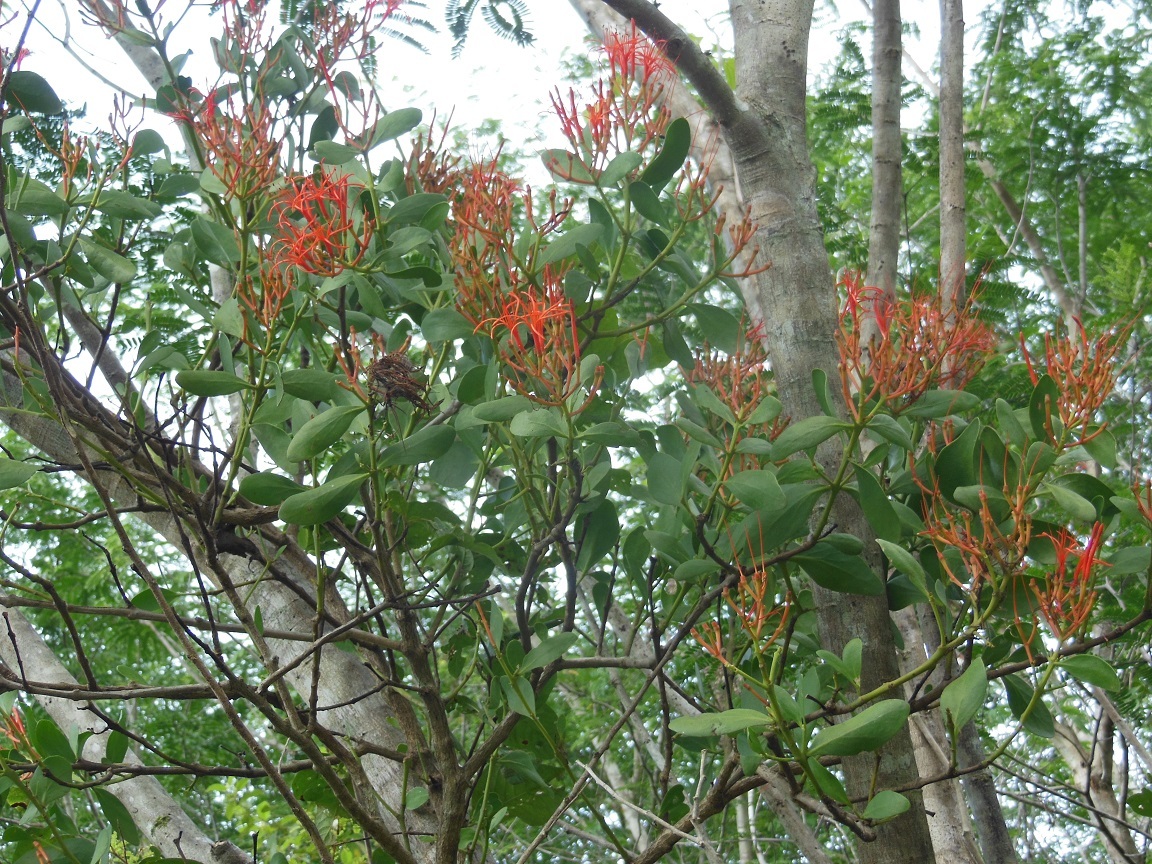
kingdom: Plantae
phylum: Tracheophyta
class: Magnoliopsida
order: Santalales
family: Loranthaceae
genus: Psittacanthus
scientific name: Psittacanthus calyculatus
